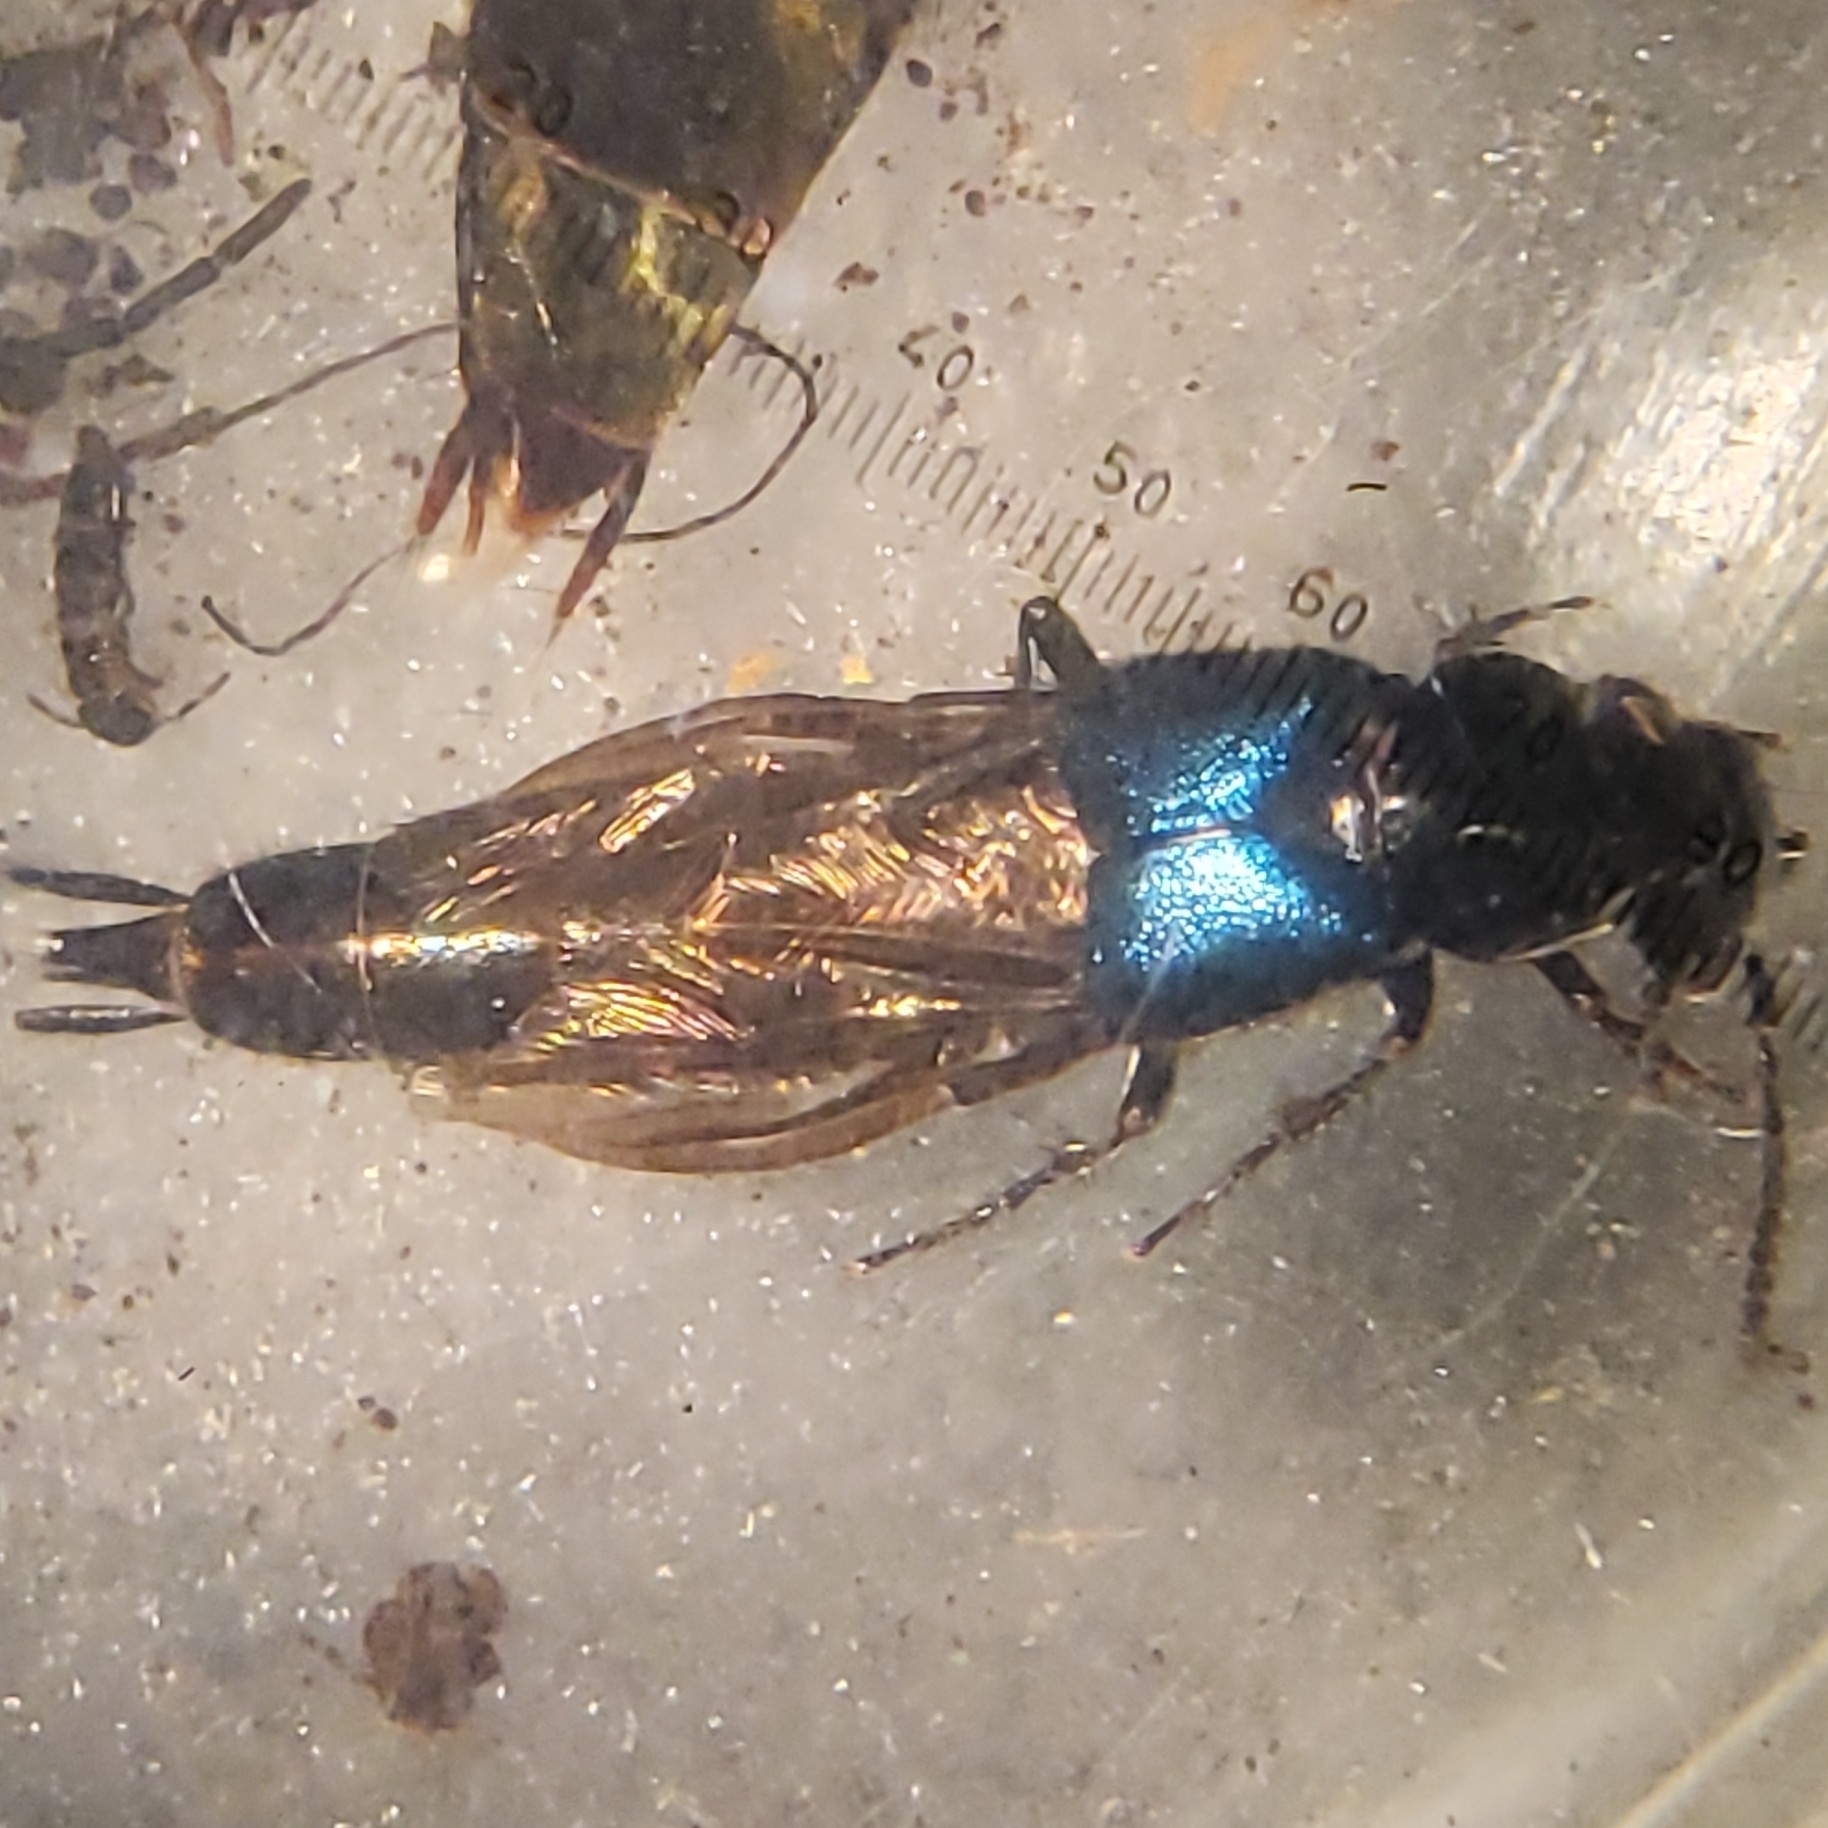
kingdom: Animalia
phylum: Arthropoda
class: Insecta
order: Coleoptera
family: Staphylinidae
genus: Philonthus
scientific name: Philonthus caeruleipennis
